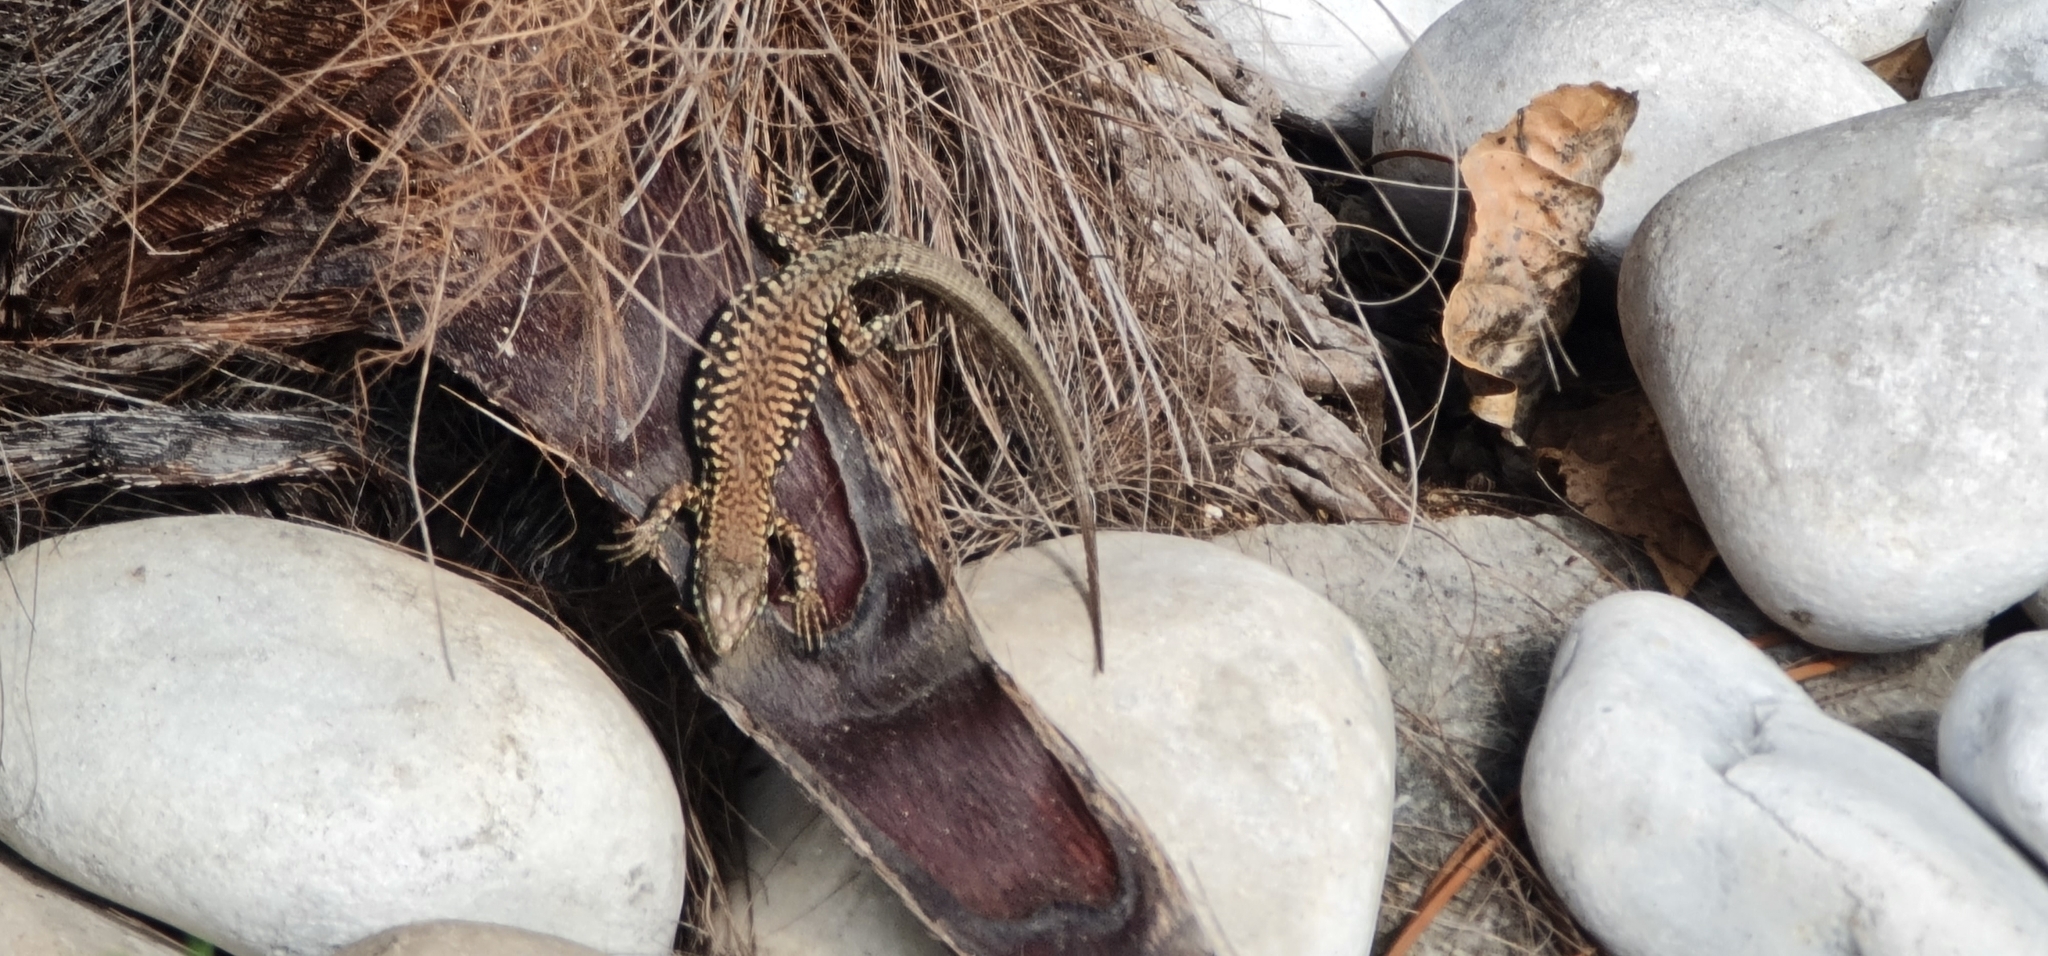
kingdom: Animalia
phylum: Chordata
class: Squamata
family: Lacertidae
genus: Podarcis
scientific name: Podarcis muralis
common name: Common wall lizard
